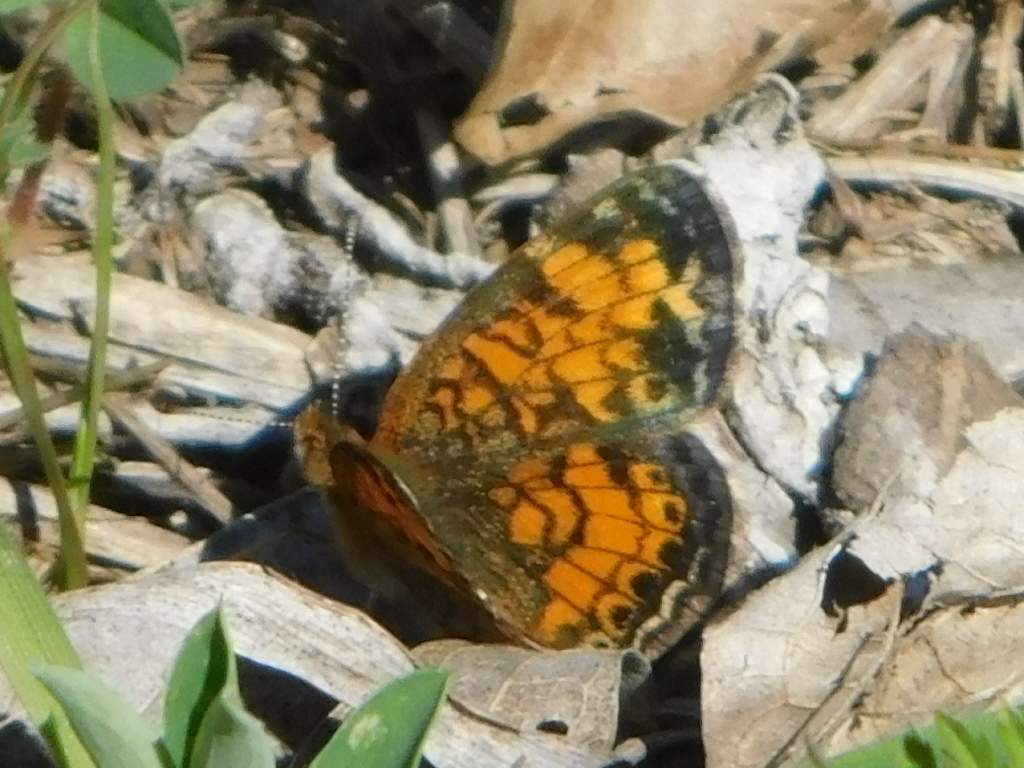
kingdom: Animalia
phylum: Arthropoda
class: Insecta
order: Lepidoptera
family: Nymphalidae
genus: Phyciodes
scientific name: Phyciodes tharos
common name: Pearl crescent
